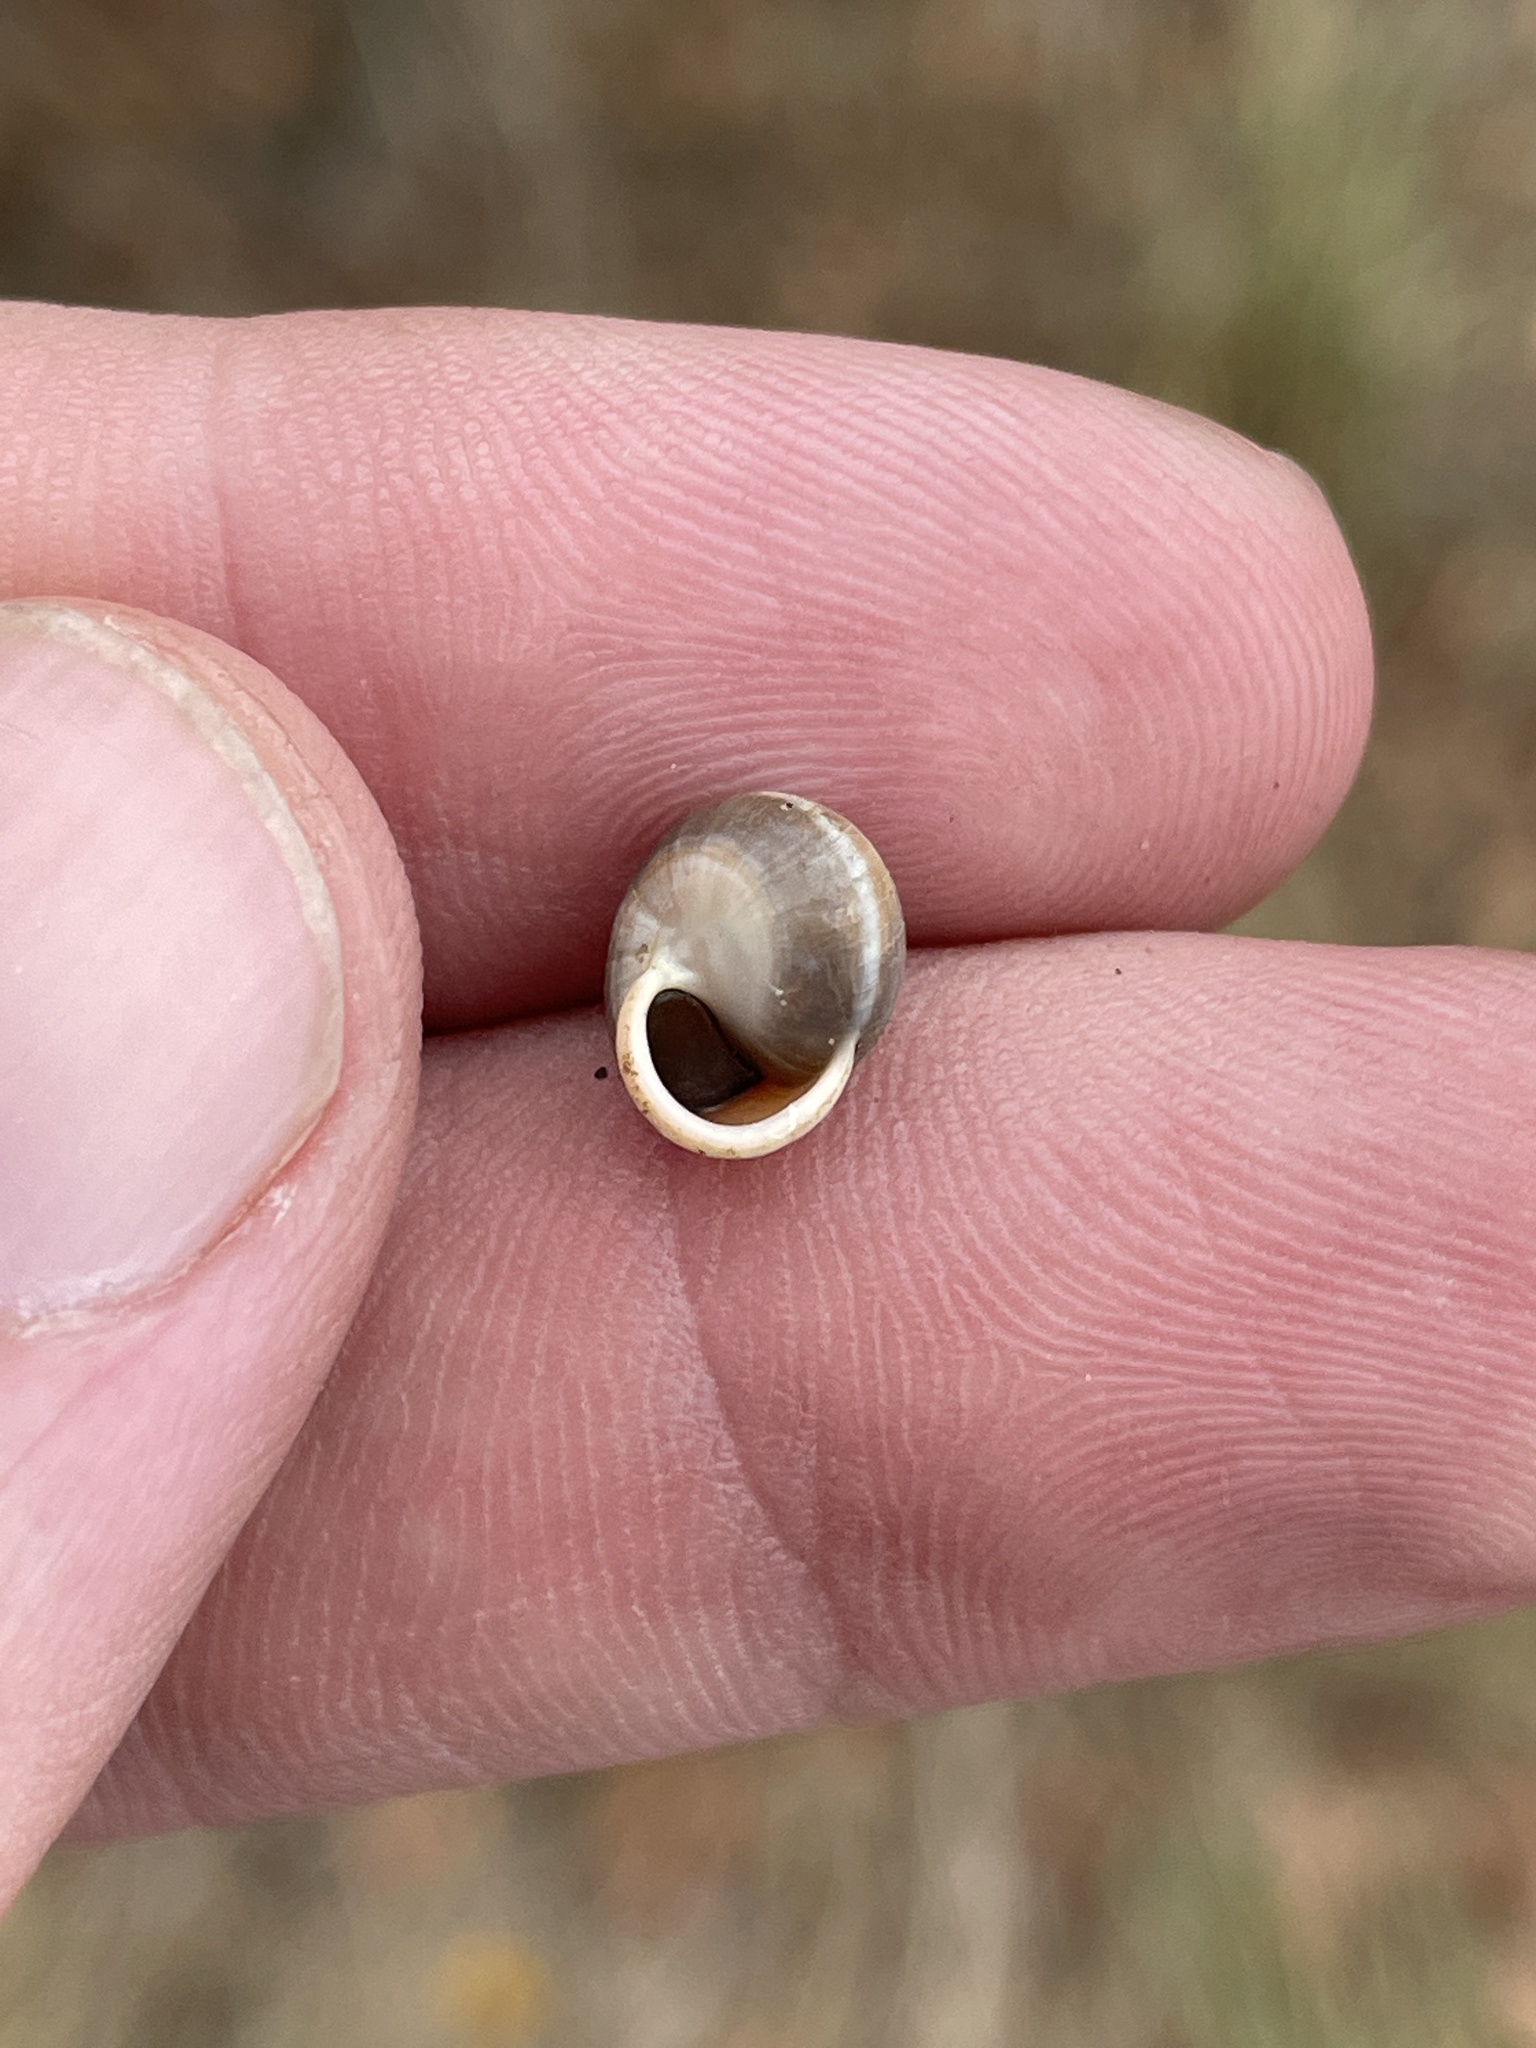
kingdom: Animalia
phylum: Mollusca
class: Gastropoda
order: Cycloneritida
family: Helicinidae
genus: Helicina
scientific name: Helicina orbiculata
